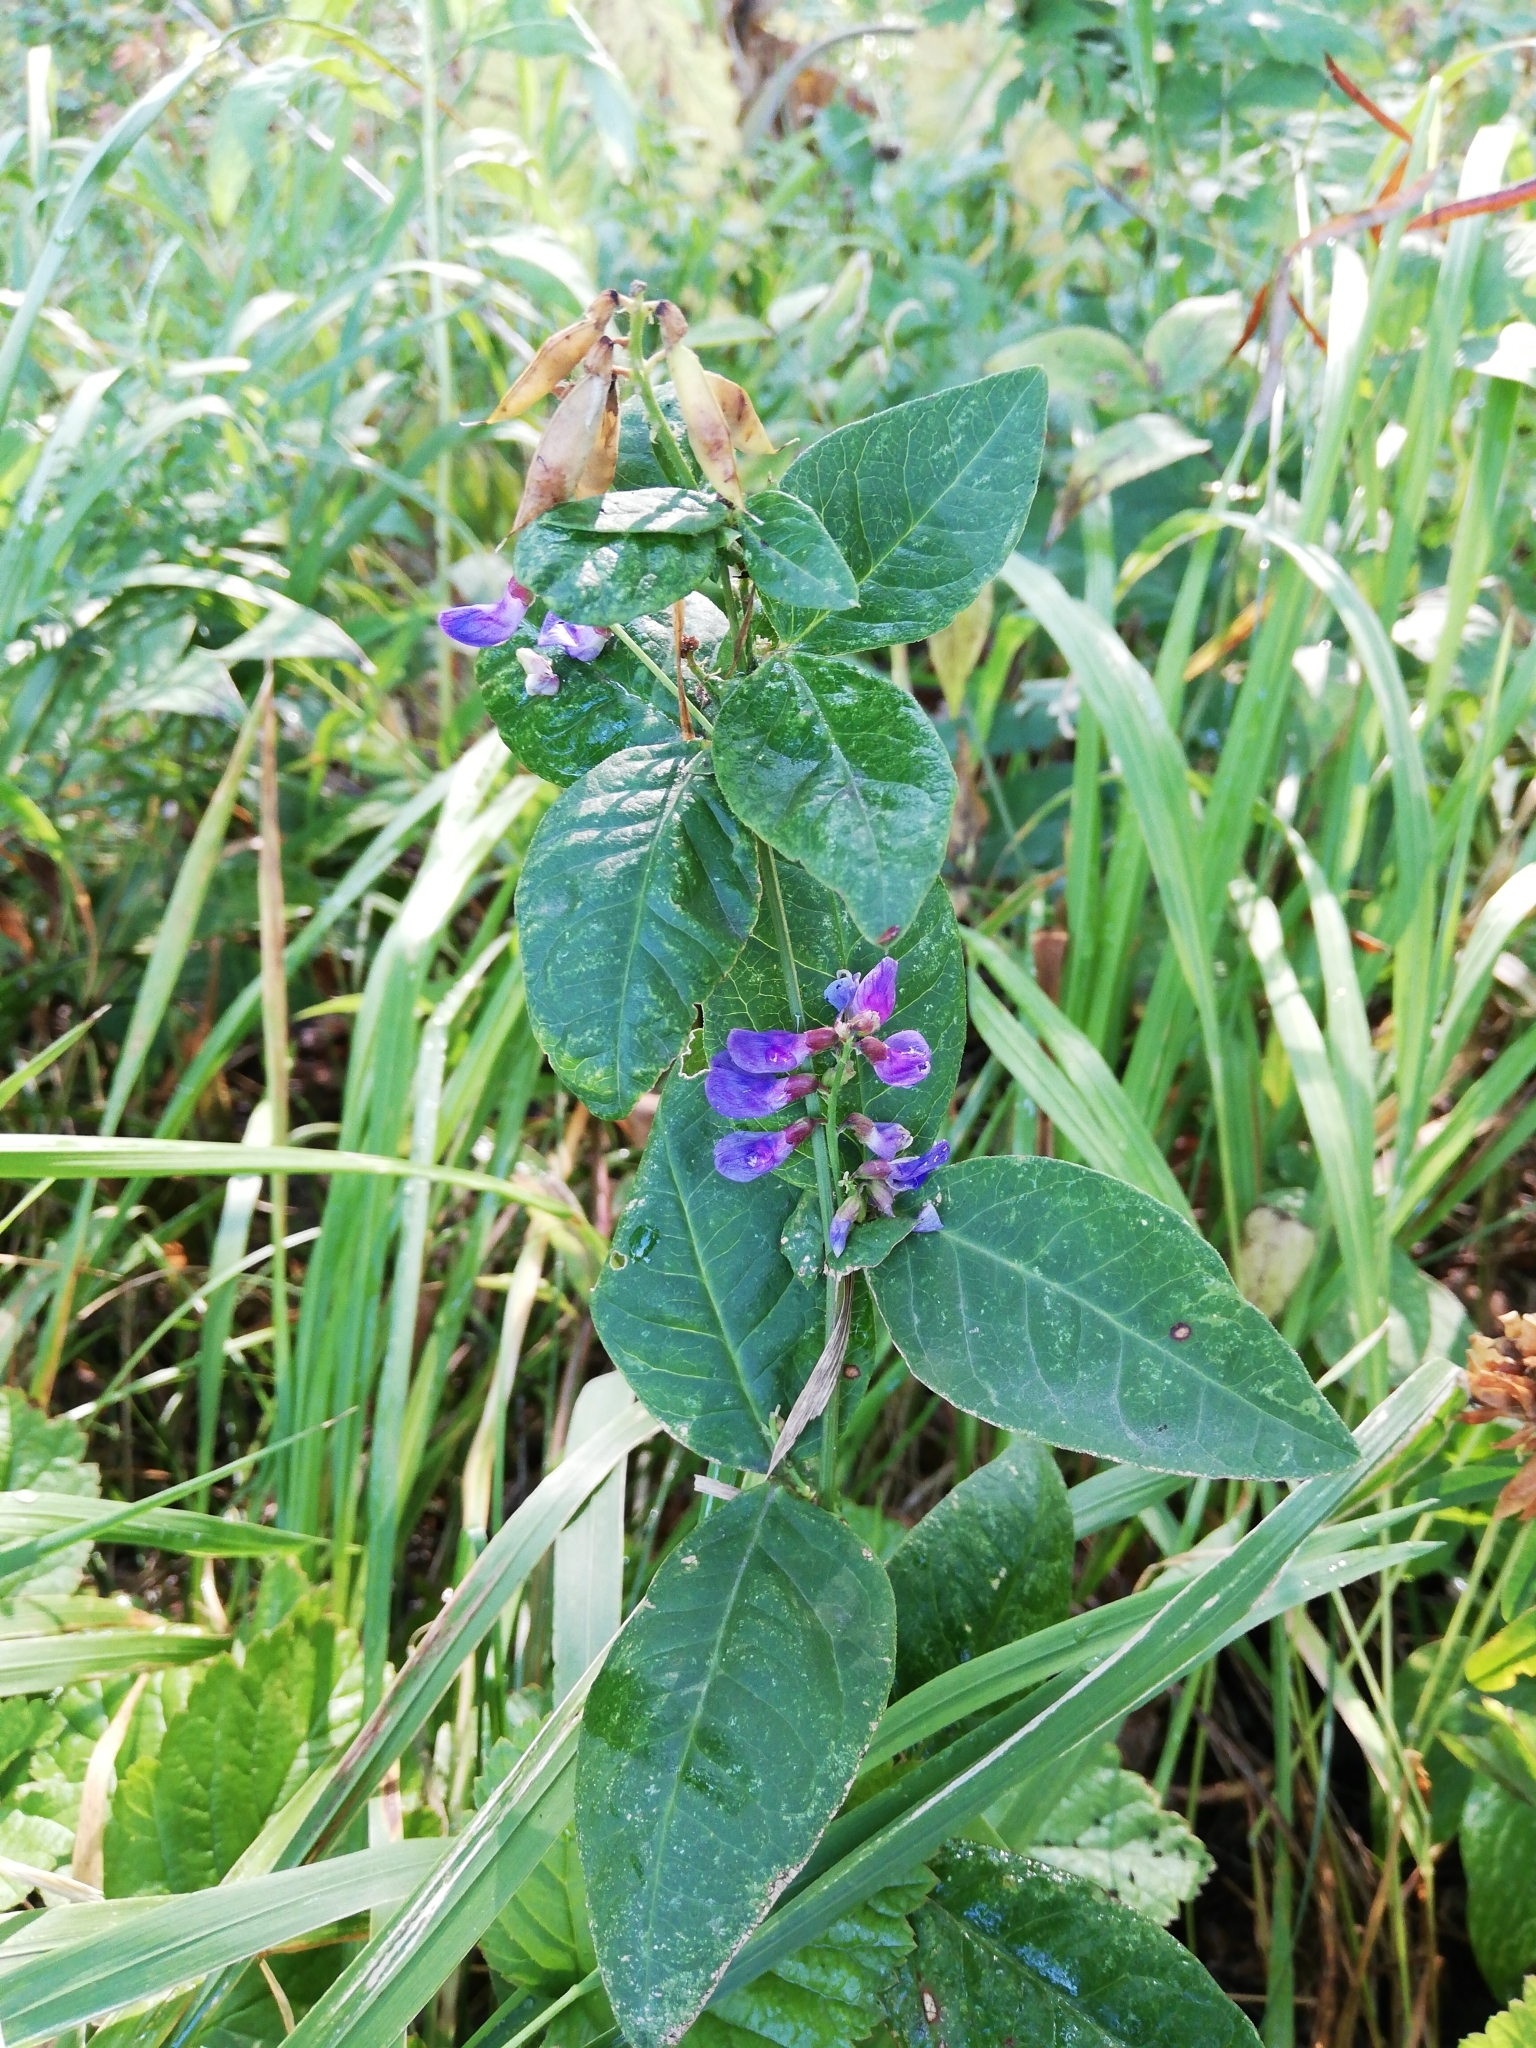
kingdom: Plantae
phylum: Tracheophyta
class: Magnoliopsida
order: Fabales
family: Fabaceae
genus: Vicia
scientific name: Vicia unijuga
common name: Two-leaf vetch
